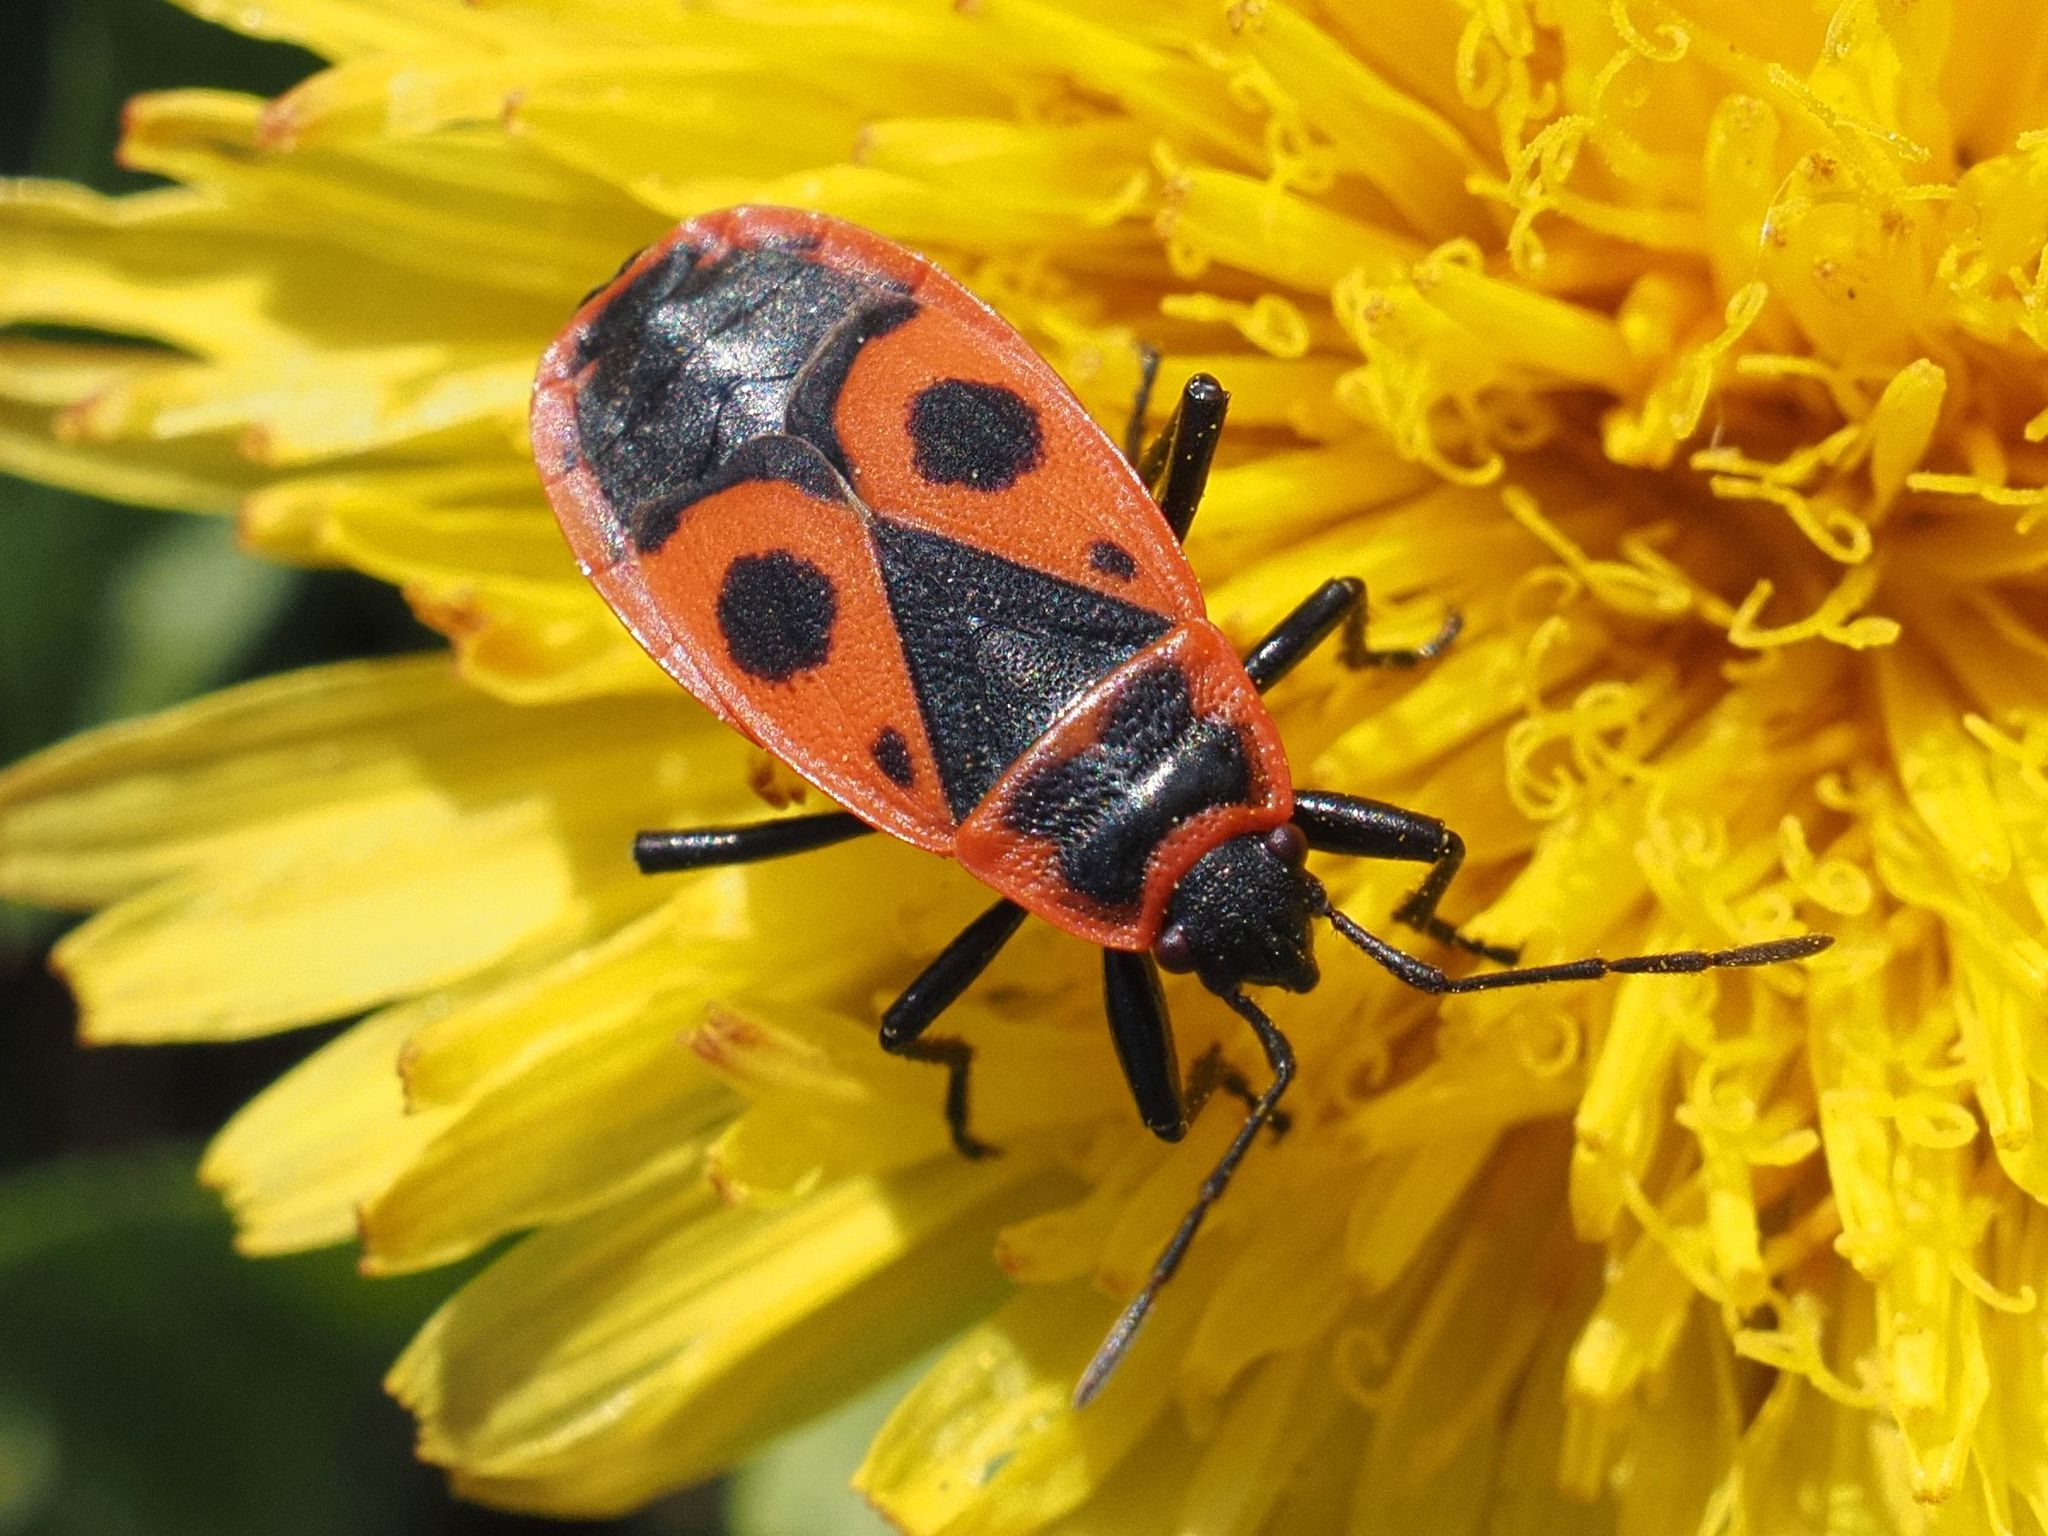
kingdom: Animalia
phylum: Arthropoda
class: Insecta
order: Hemiptera
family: Pyrrhocoridae
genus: Pyrrhocoris
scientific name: Pyrrhocoris apterus
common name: Firebug
